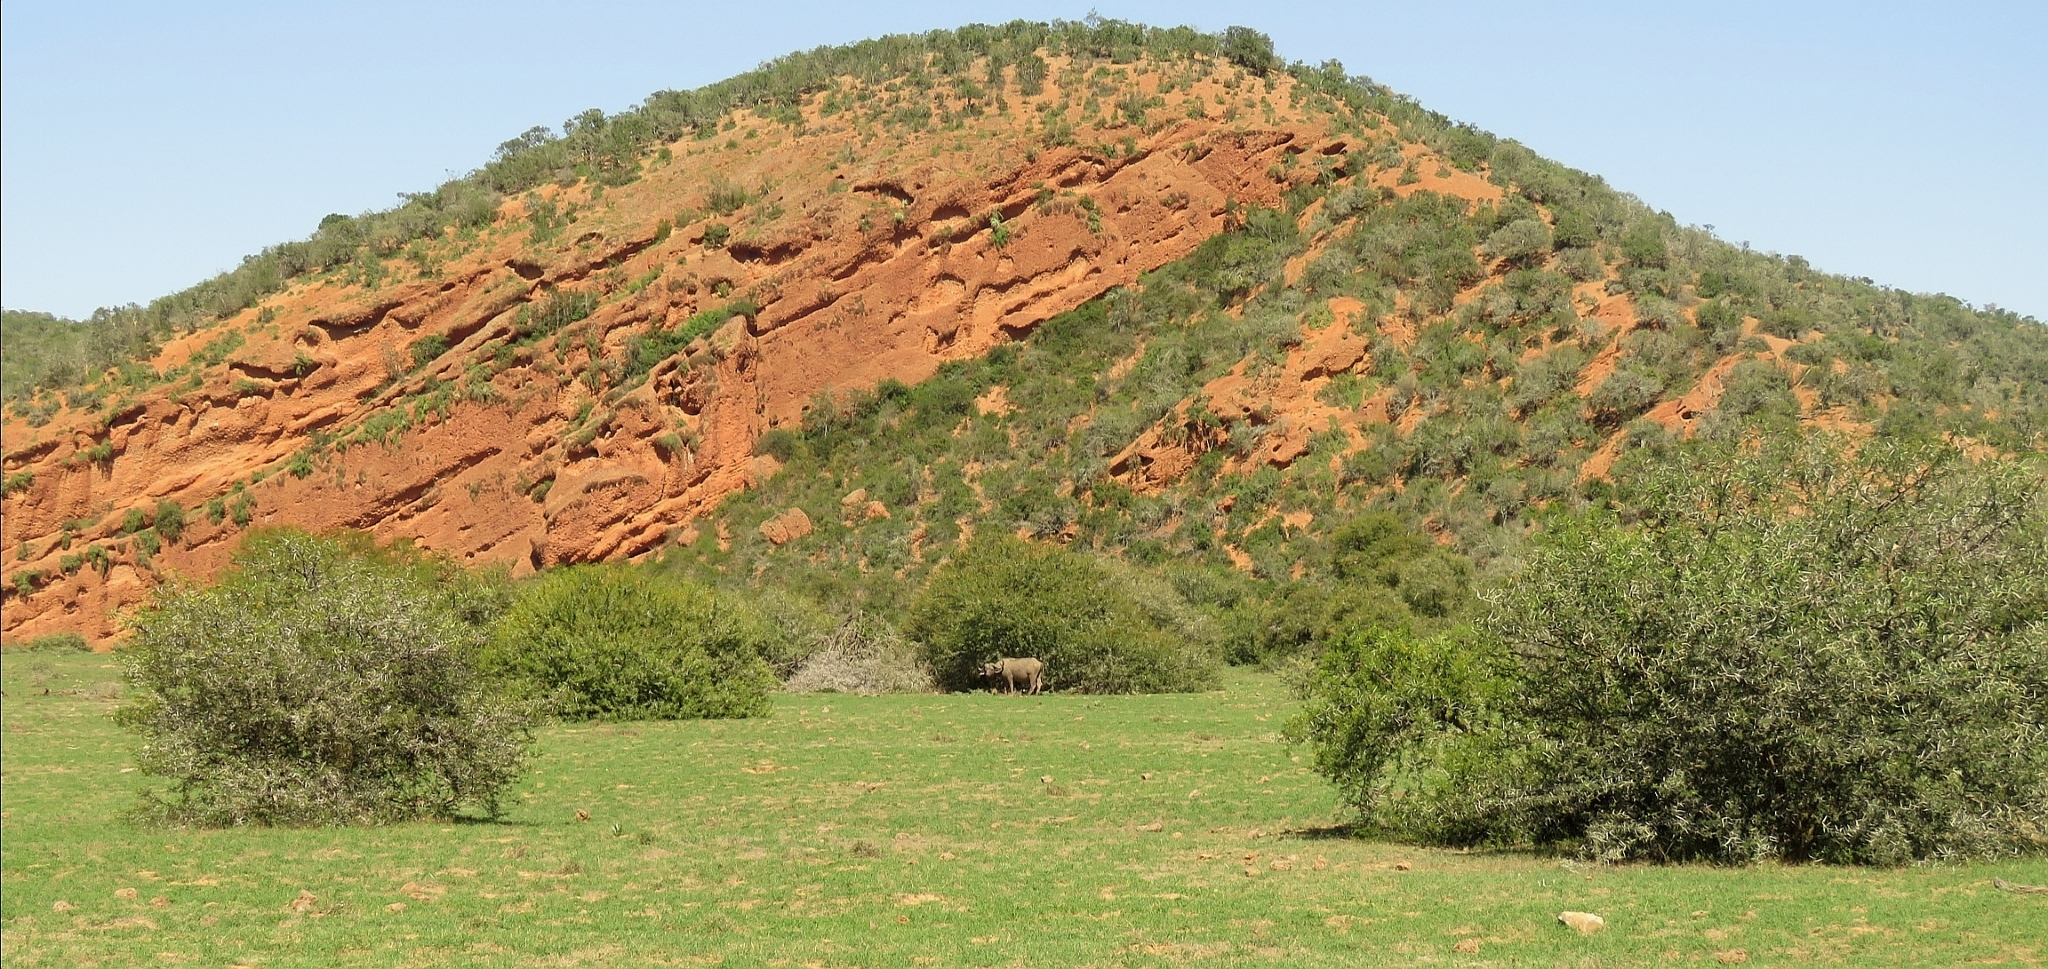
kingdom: Animalia
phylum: Chordata
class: Mammalia
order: Artiodactyla
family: Bovidae
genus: Syncerus
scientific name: Syncerus caffer
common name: African buffalo
